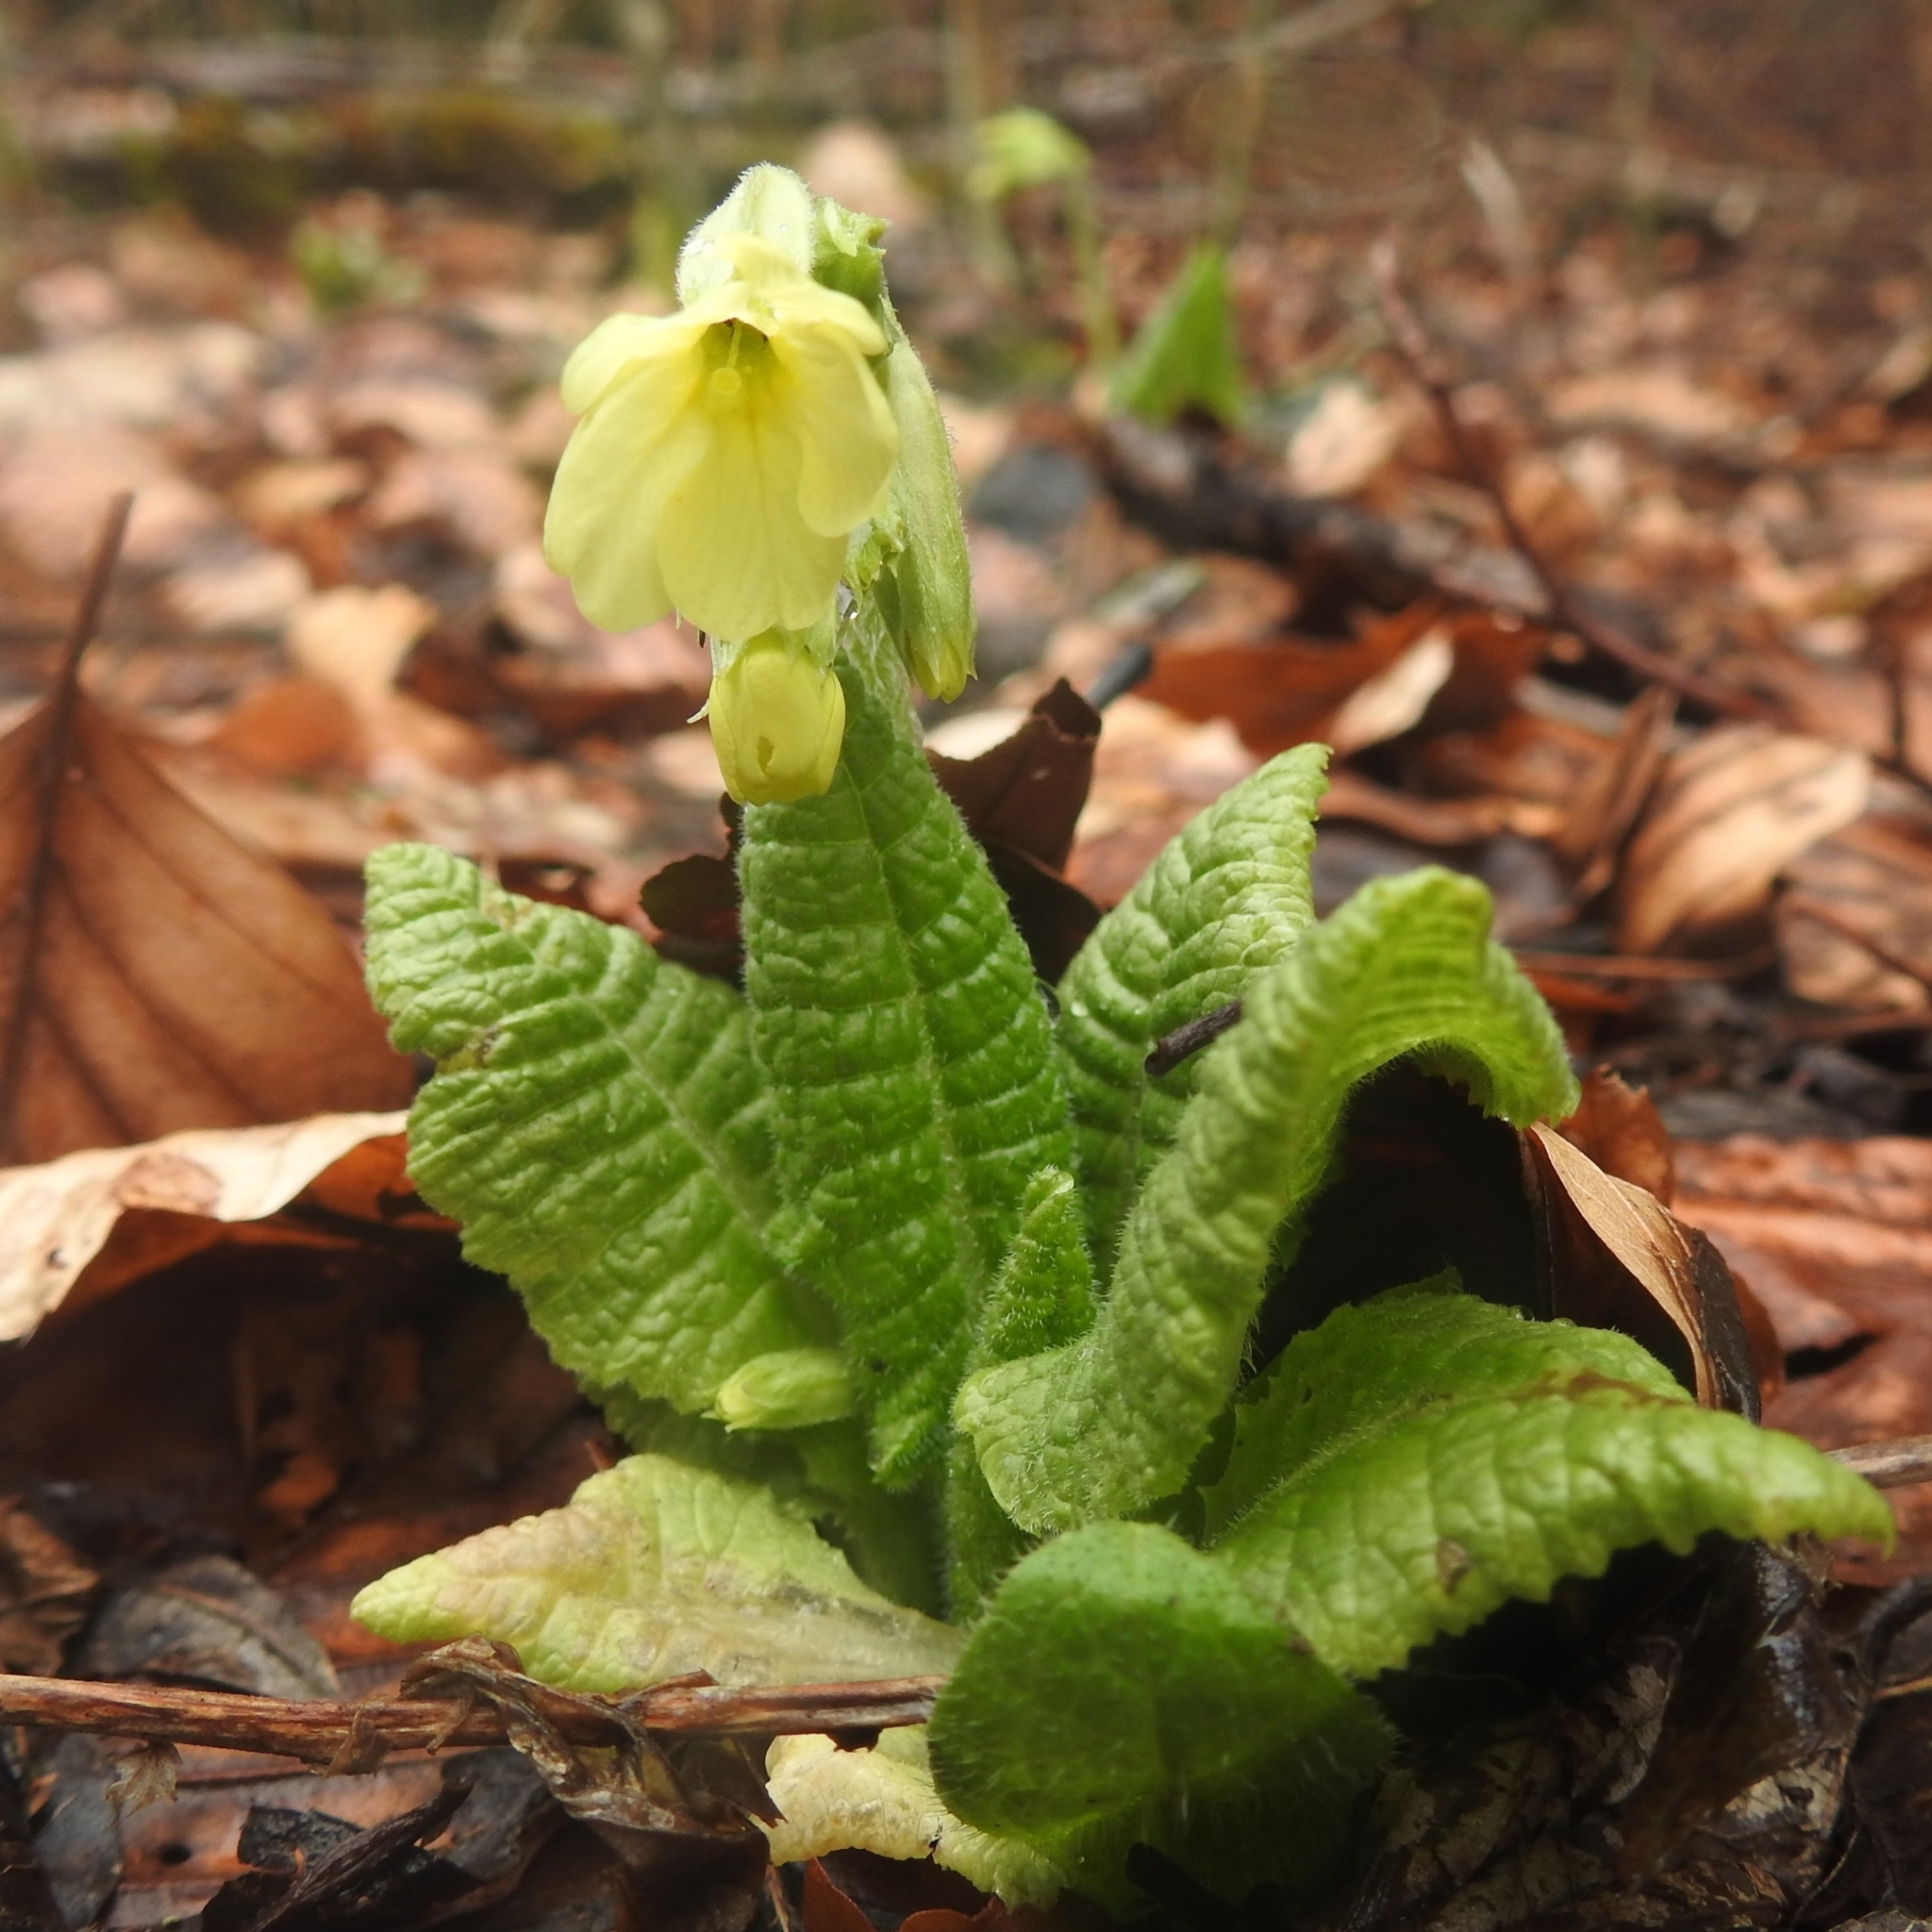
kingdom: Plantae
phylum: Tracheophyta
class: Magnoliopsida
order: Ericales
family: Primulaceae
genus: Primula
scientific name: Primula elatior
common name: Oxlip
